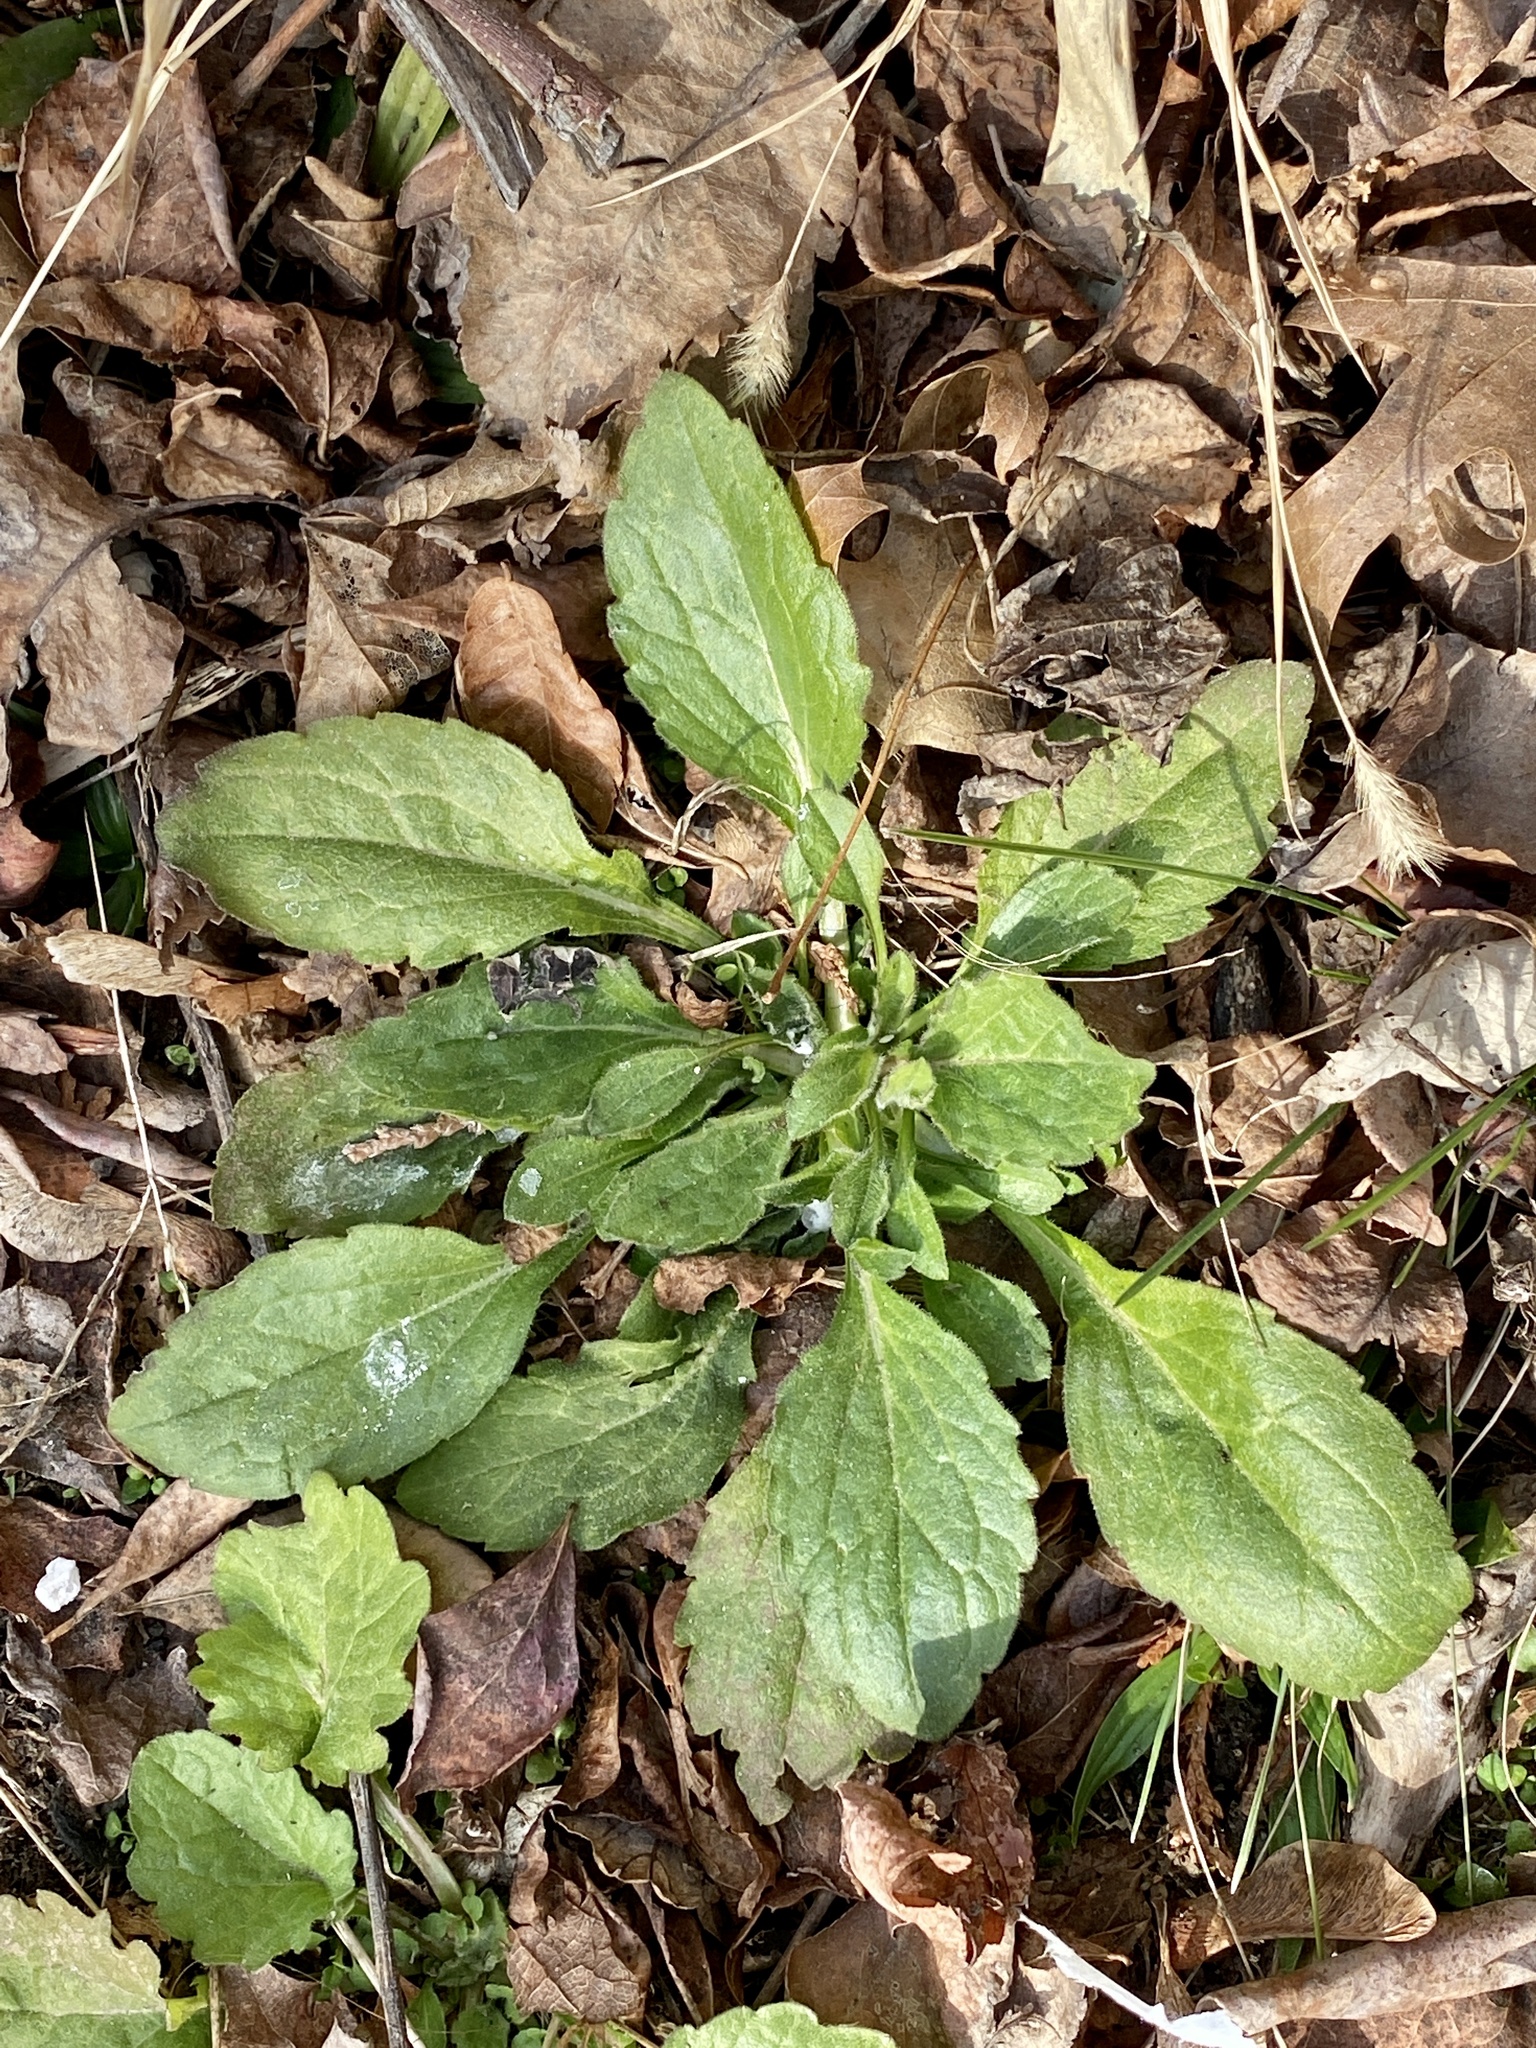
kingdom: Plantae
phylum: Tracheophyta
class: Magnoliopsida
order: Asterales
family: Asteraceae
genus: Erigeron
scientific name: Erigeron annuus
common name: Tall fleabane
